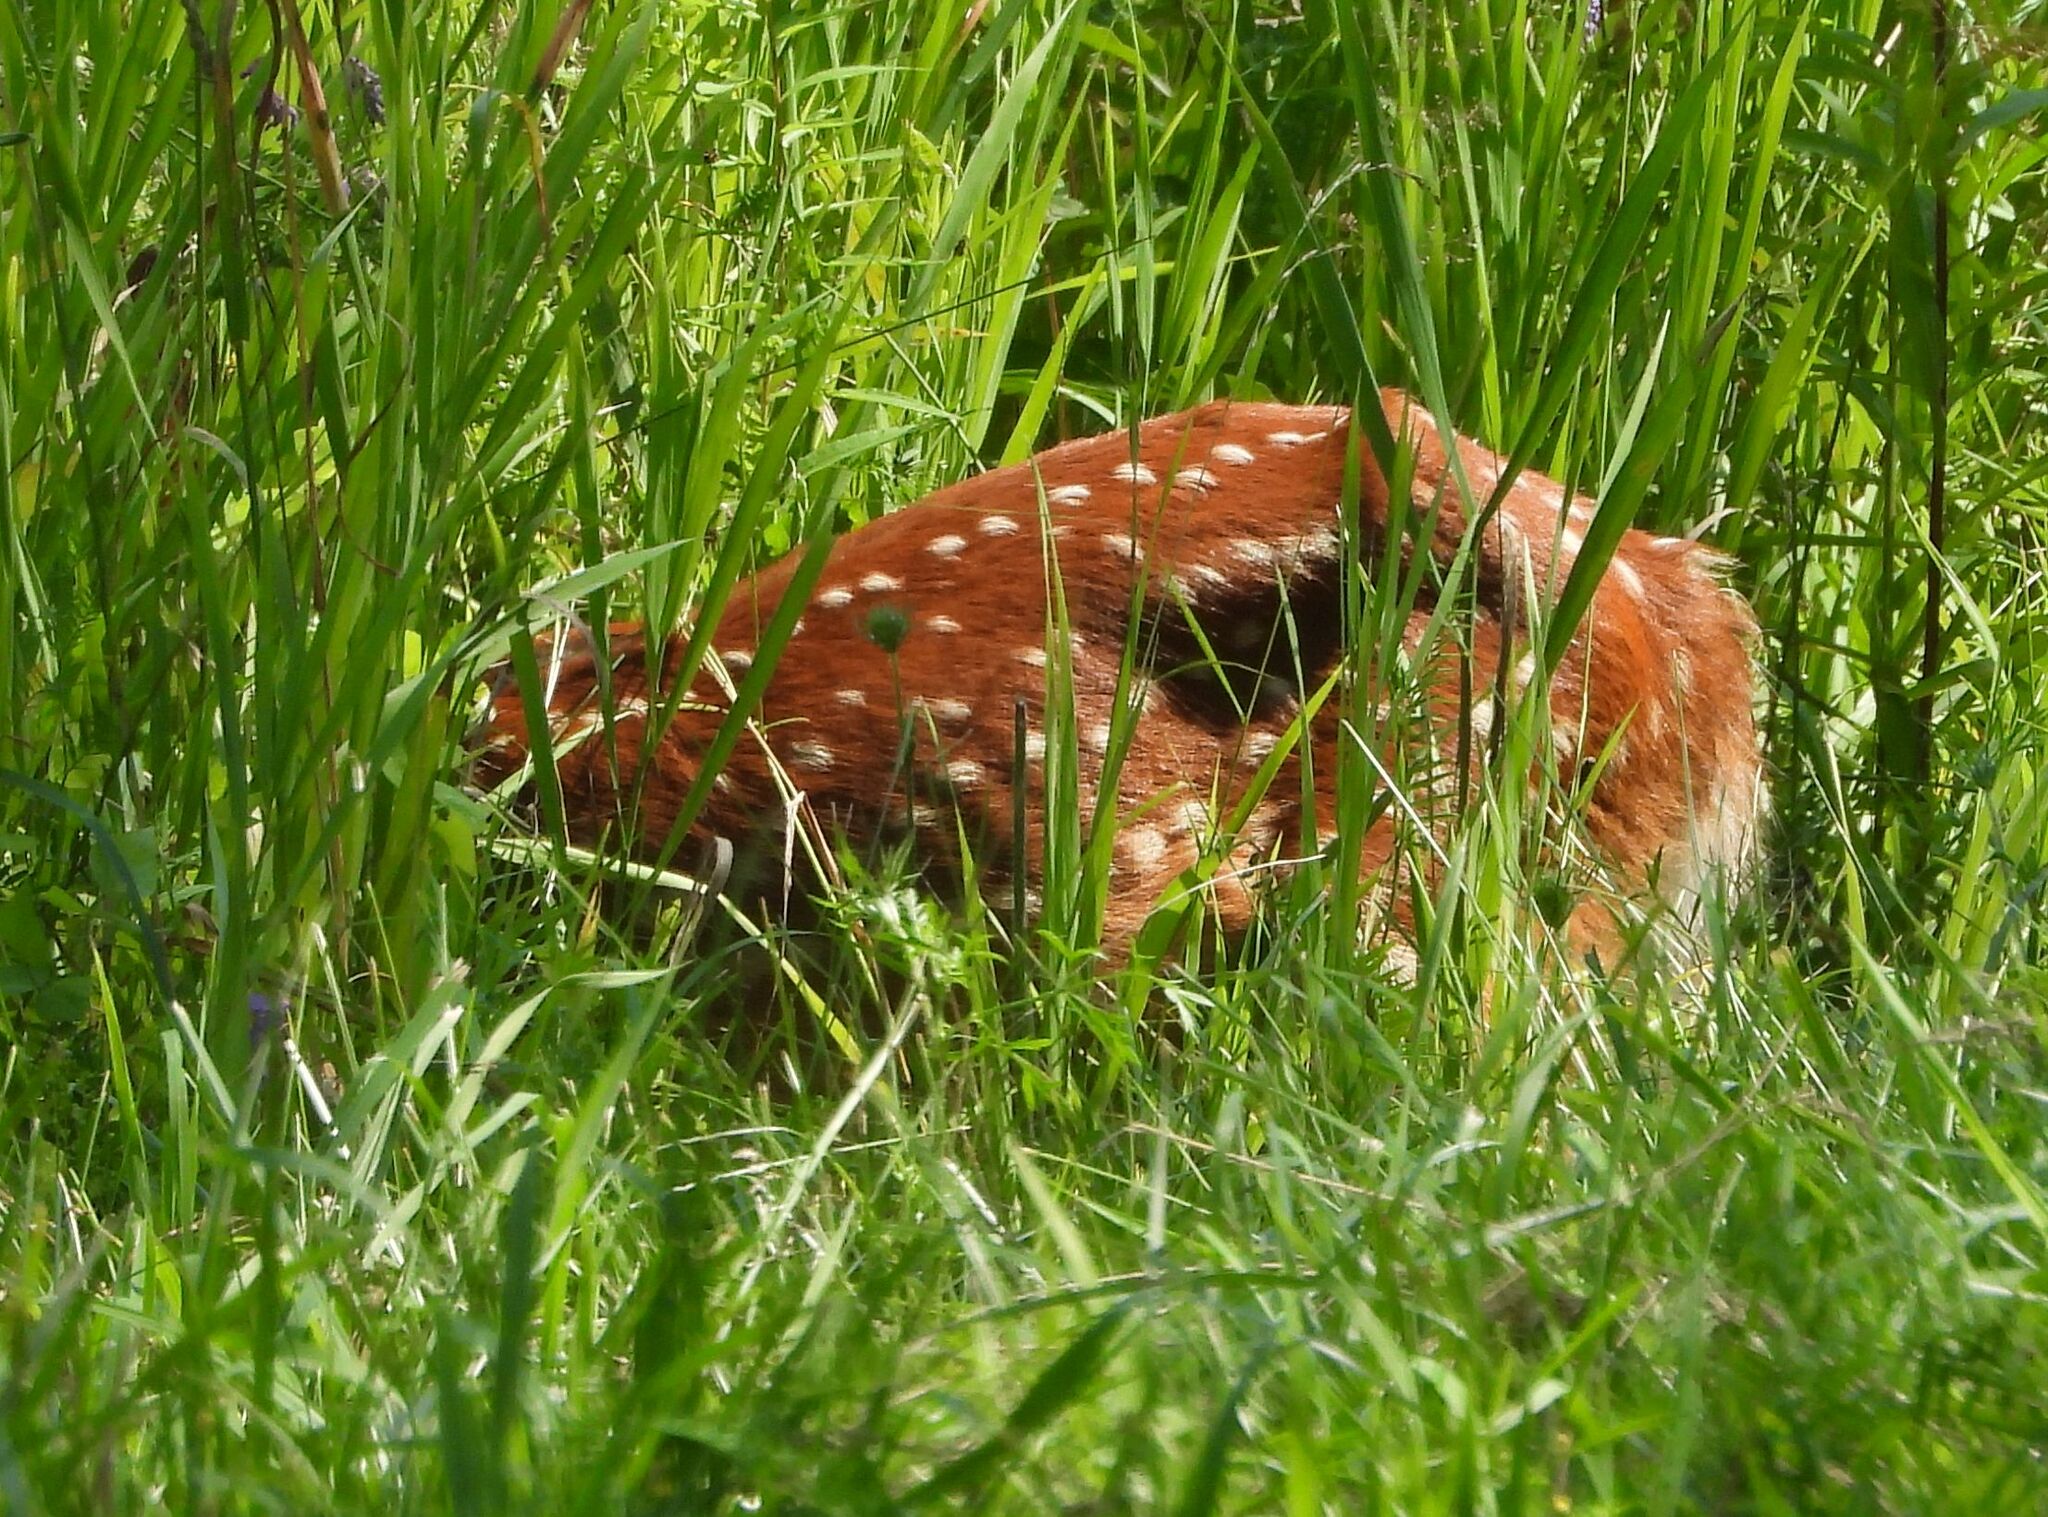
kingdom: Animalia
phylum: Chordata
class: Mammalia
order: Artiodactyla
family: Cervidae
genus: Odocoileus
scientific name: Odocoileus virginianus
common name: White-tailed deer
